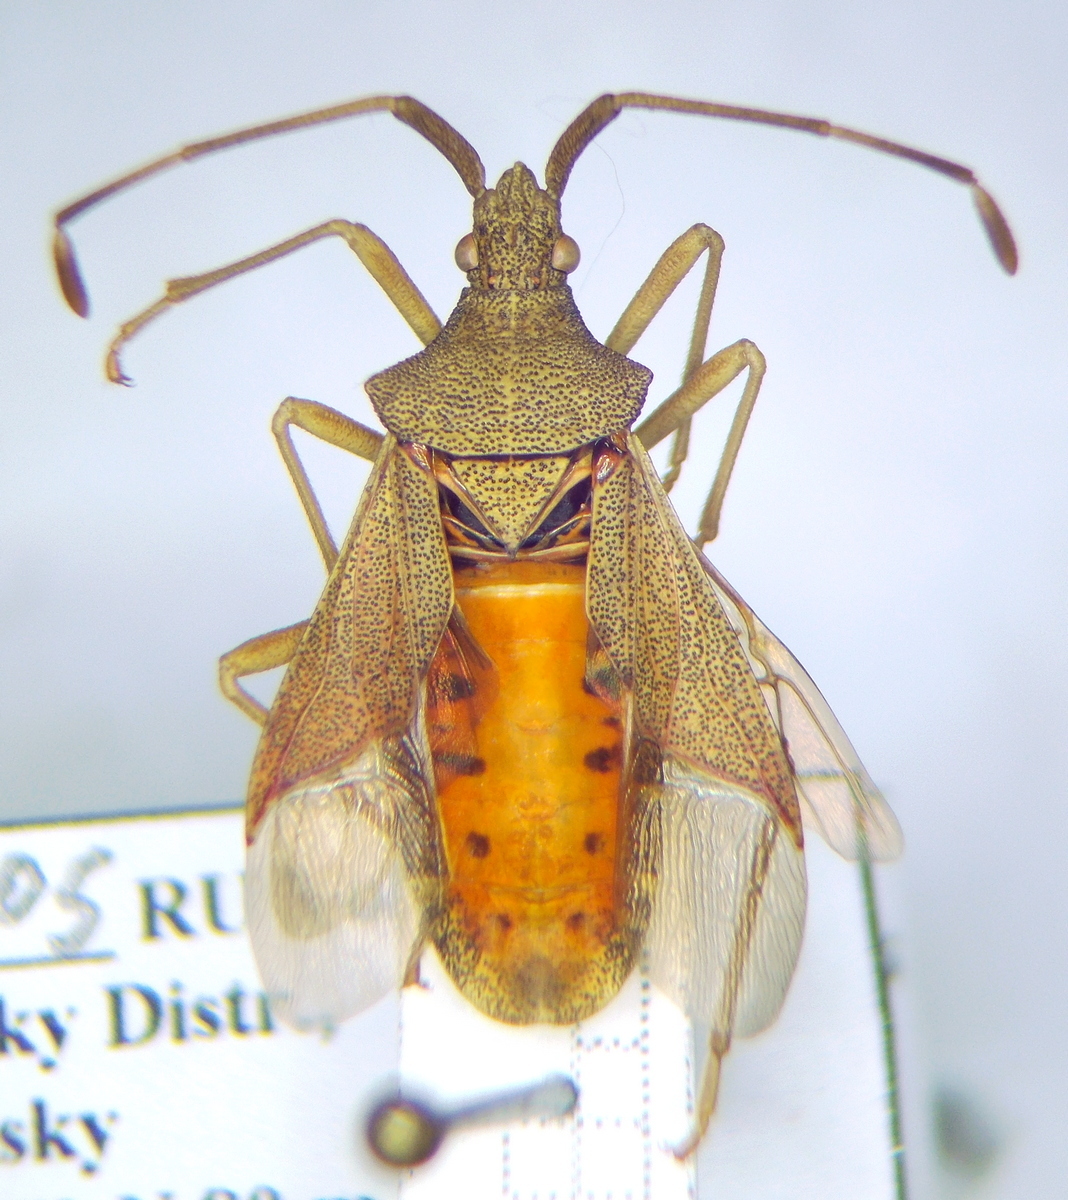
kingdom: Animalia
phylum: Arthropoda
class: Insecta
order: Hemiptera
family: Coreidae
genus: Gonocerus
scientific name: Gonocerus acuteangulatus
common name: Box bug
